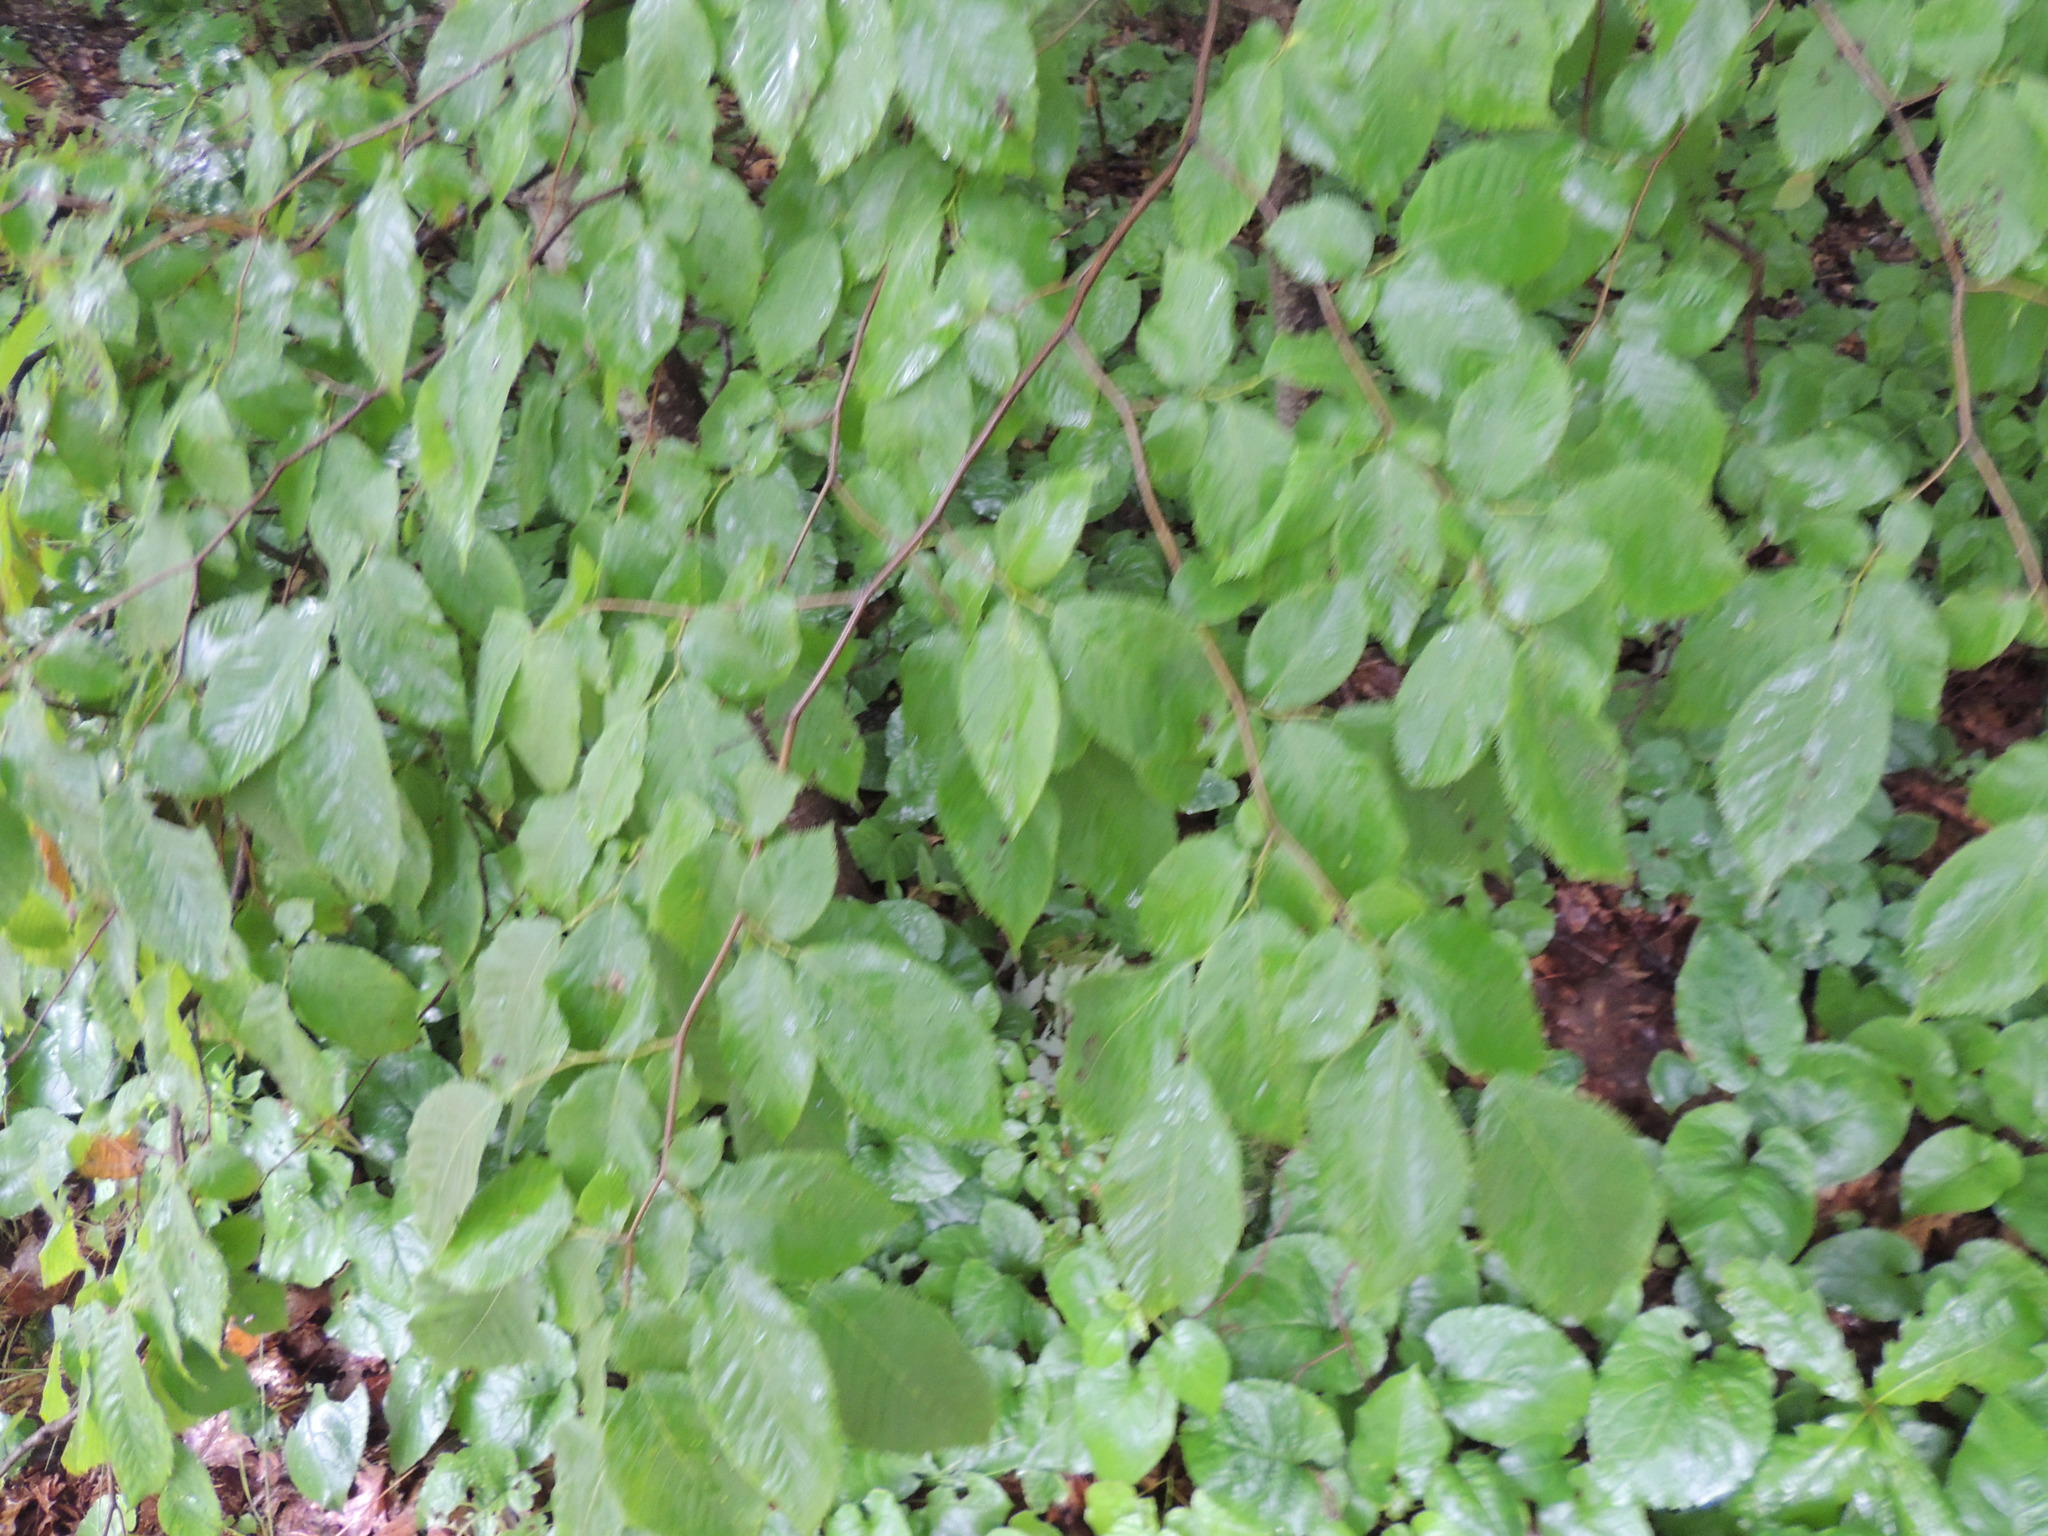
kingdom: Plantae
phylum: Tracheophyta
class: Magnoliopsida
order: Fagales
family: Betulaceae
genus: Betula
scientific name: Betula alleghaniensis
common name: Yellow birch
